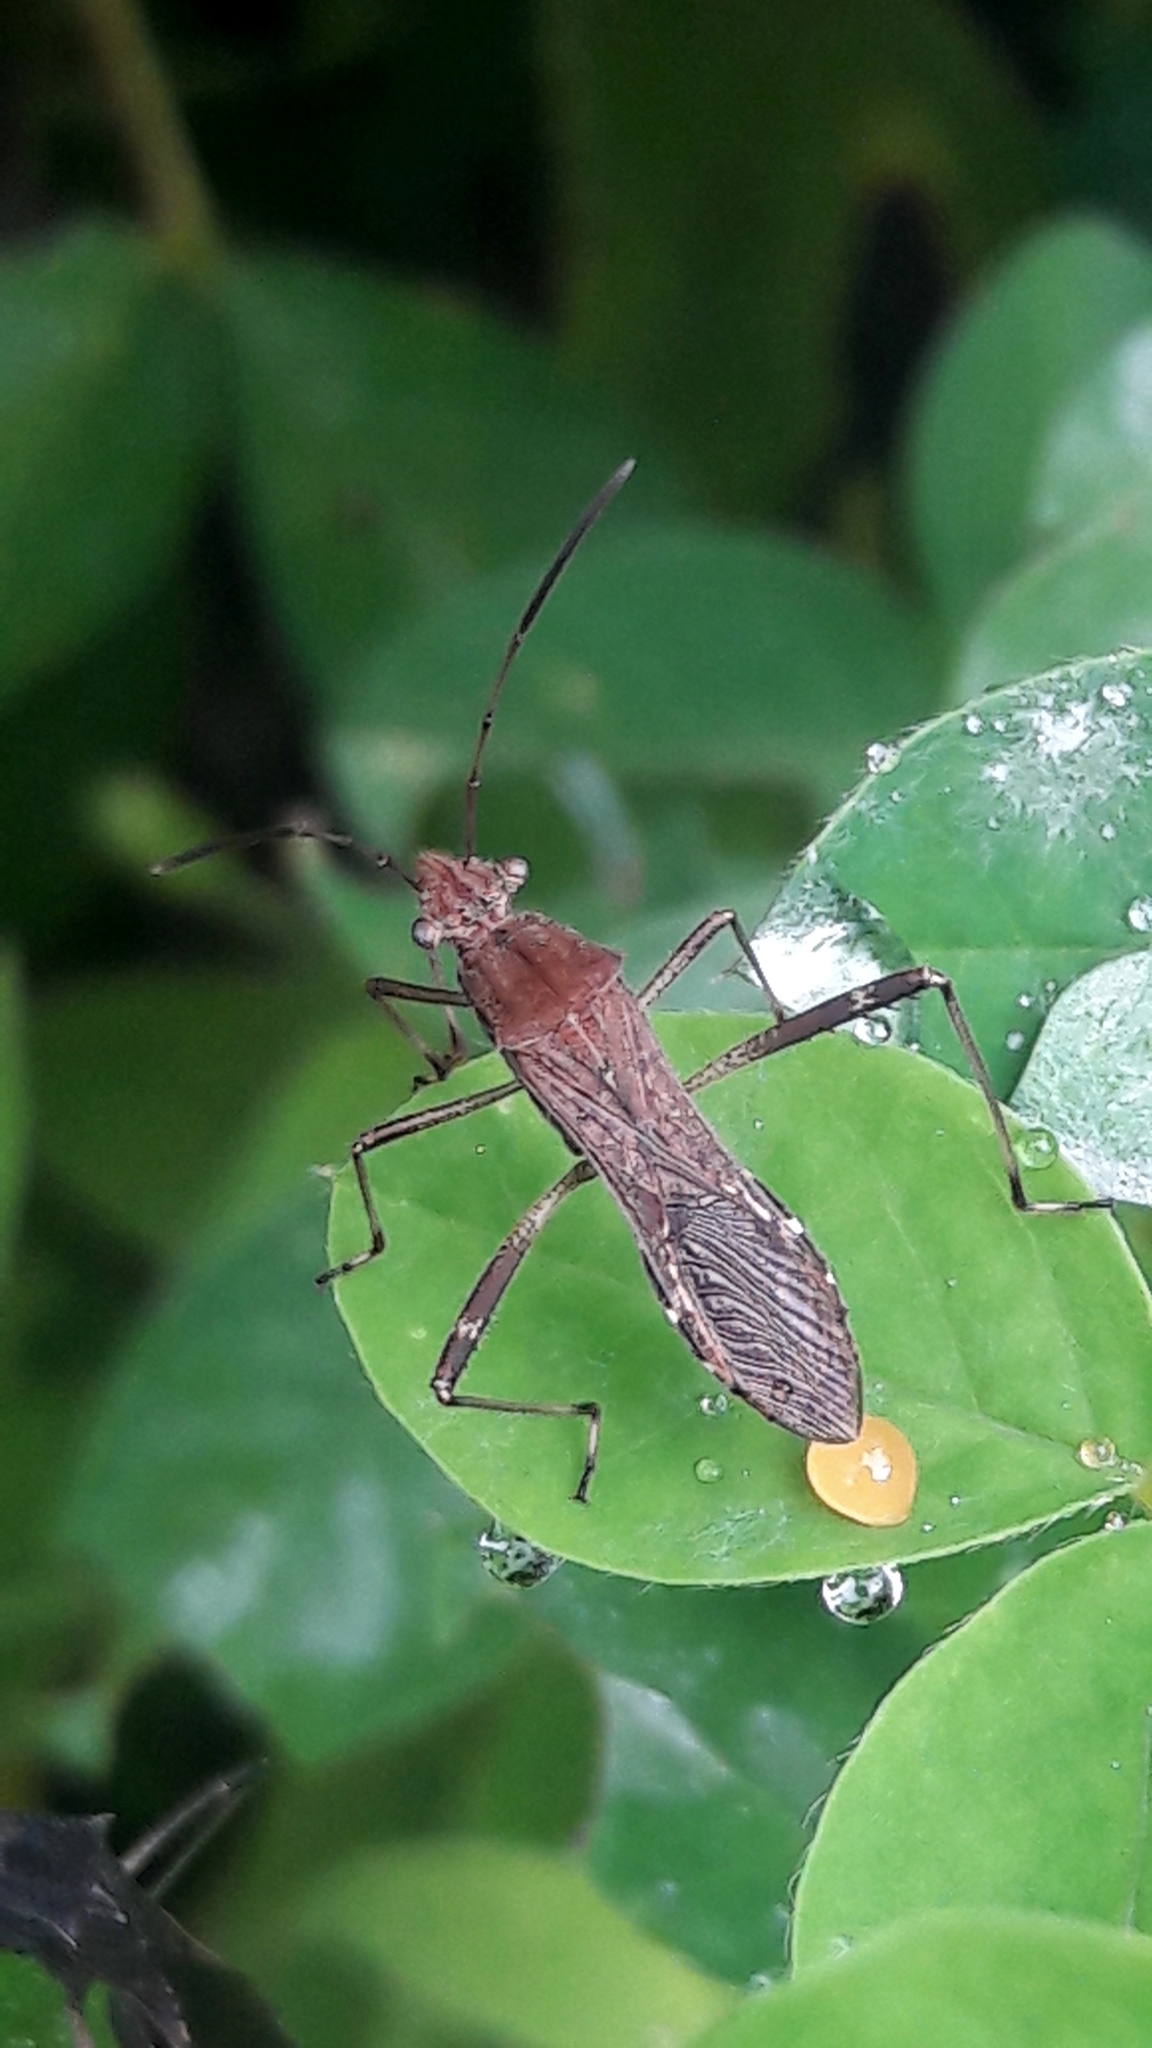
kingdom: Animalia
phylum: Arthropoda
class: Insecta
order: Hemiptera
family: Alydidae
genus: Neomegalotomus
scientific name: Neomegalotomus parvus
